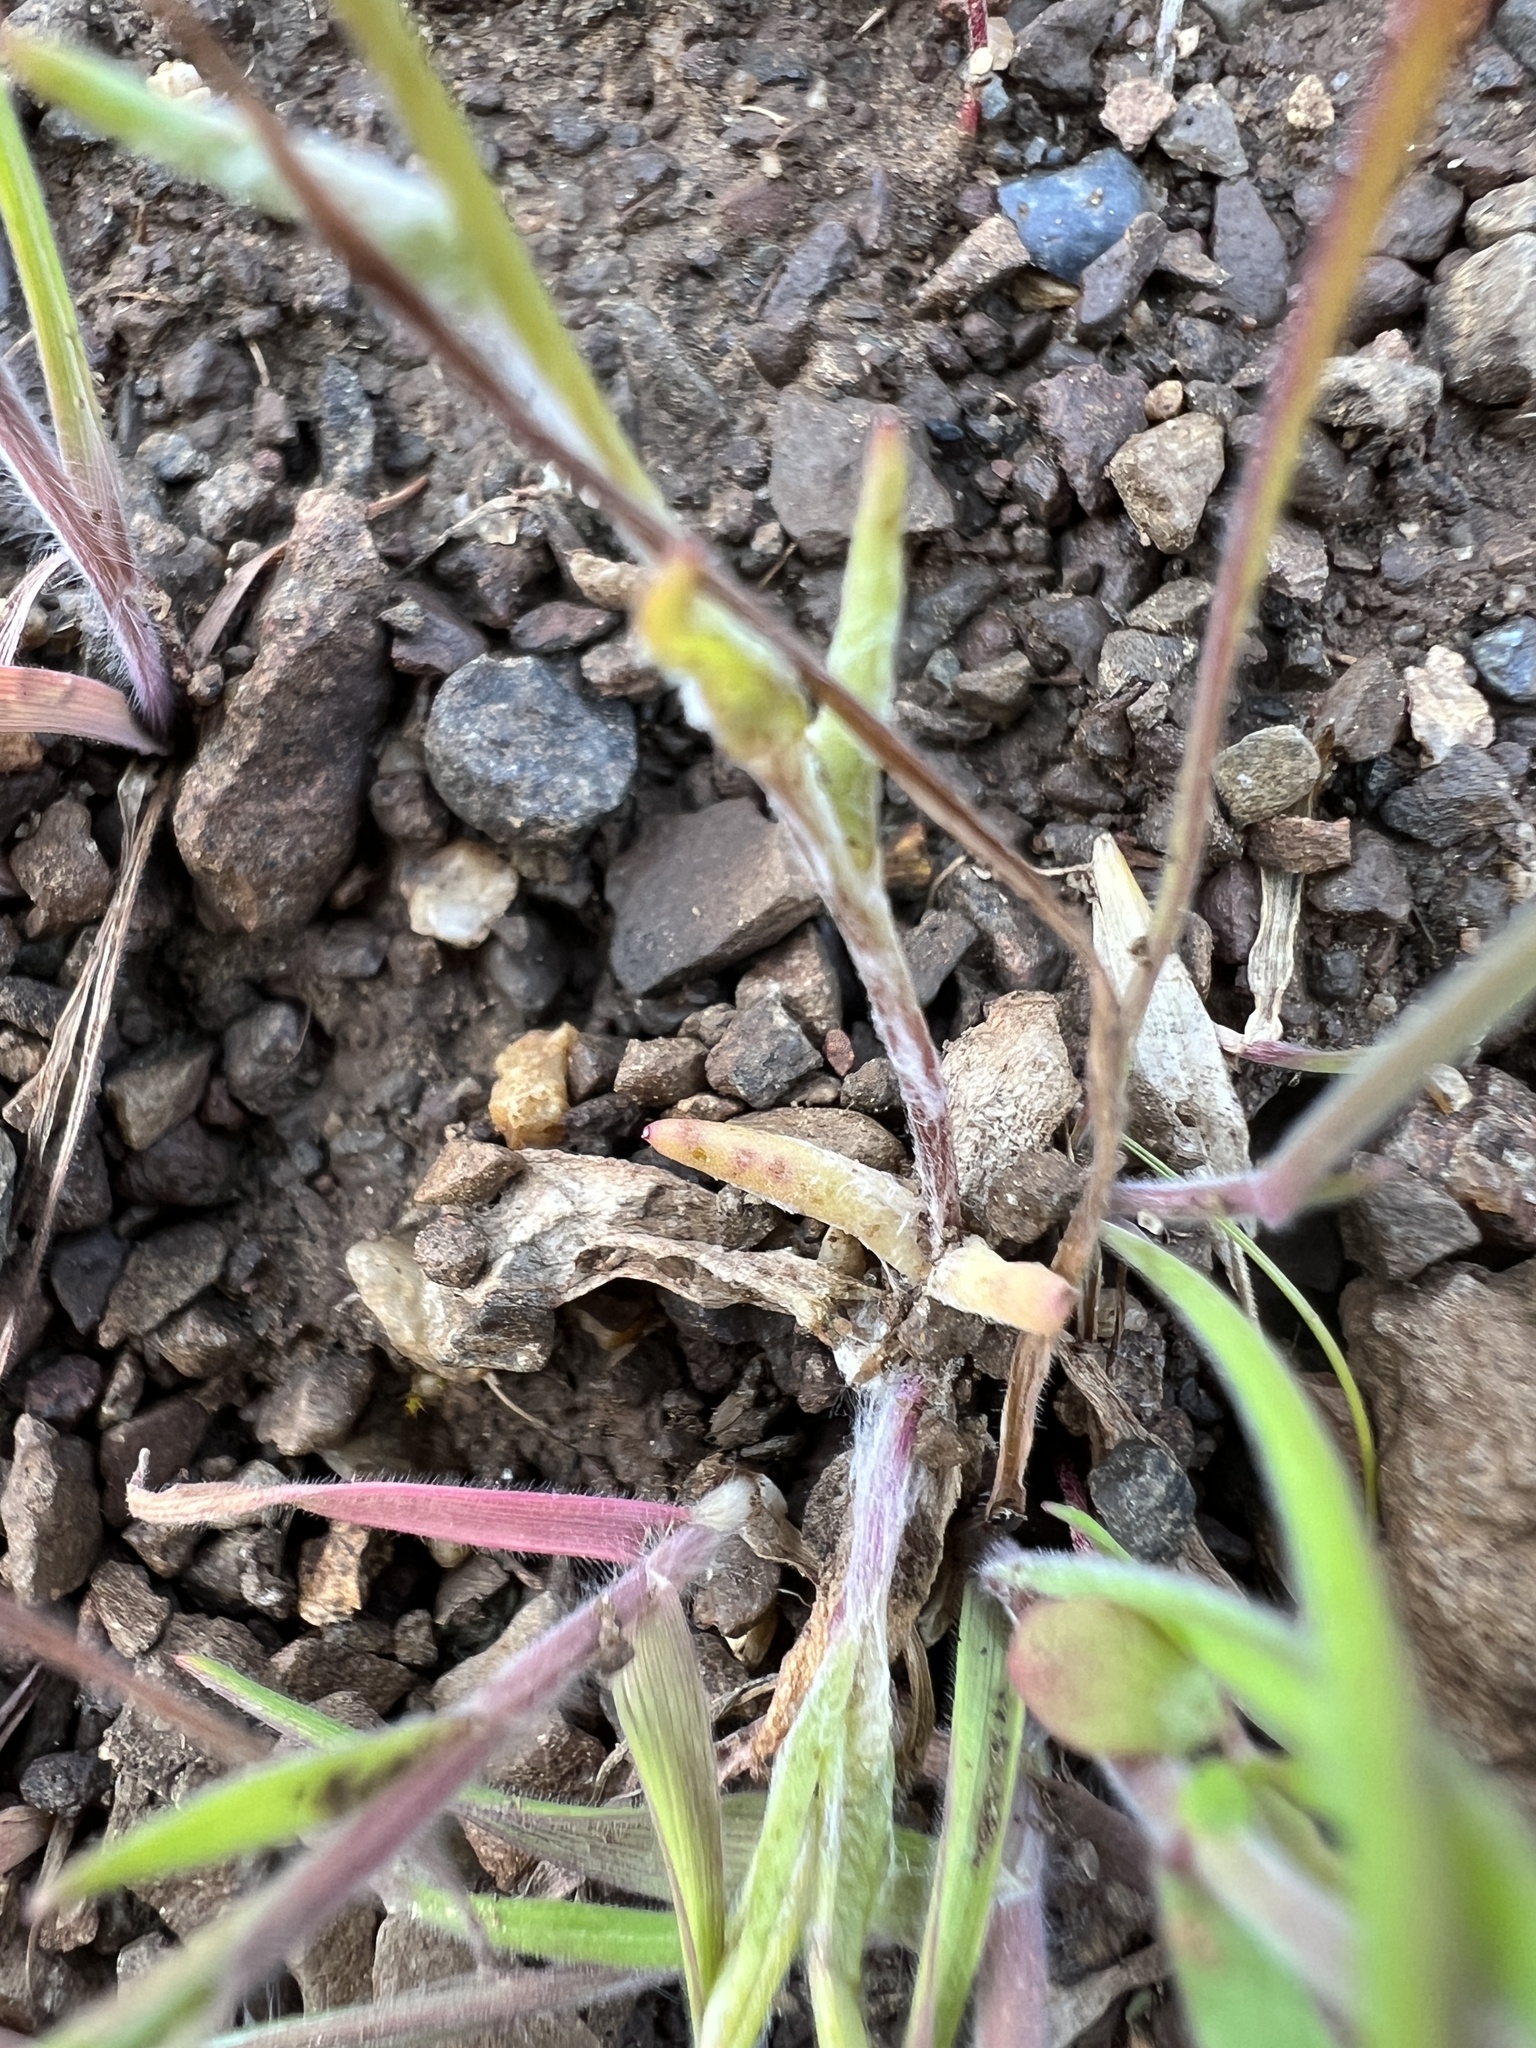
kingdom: Plantae
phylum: Tracheophyta
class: Magnoliopsida
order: Asterales
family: Asteraceae
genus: Crocidium
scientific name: Crocidium multicaule
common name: Common spring gold
